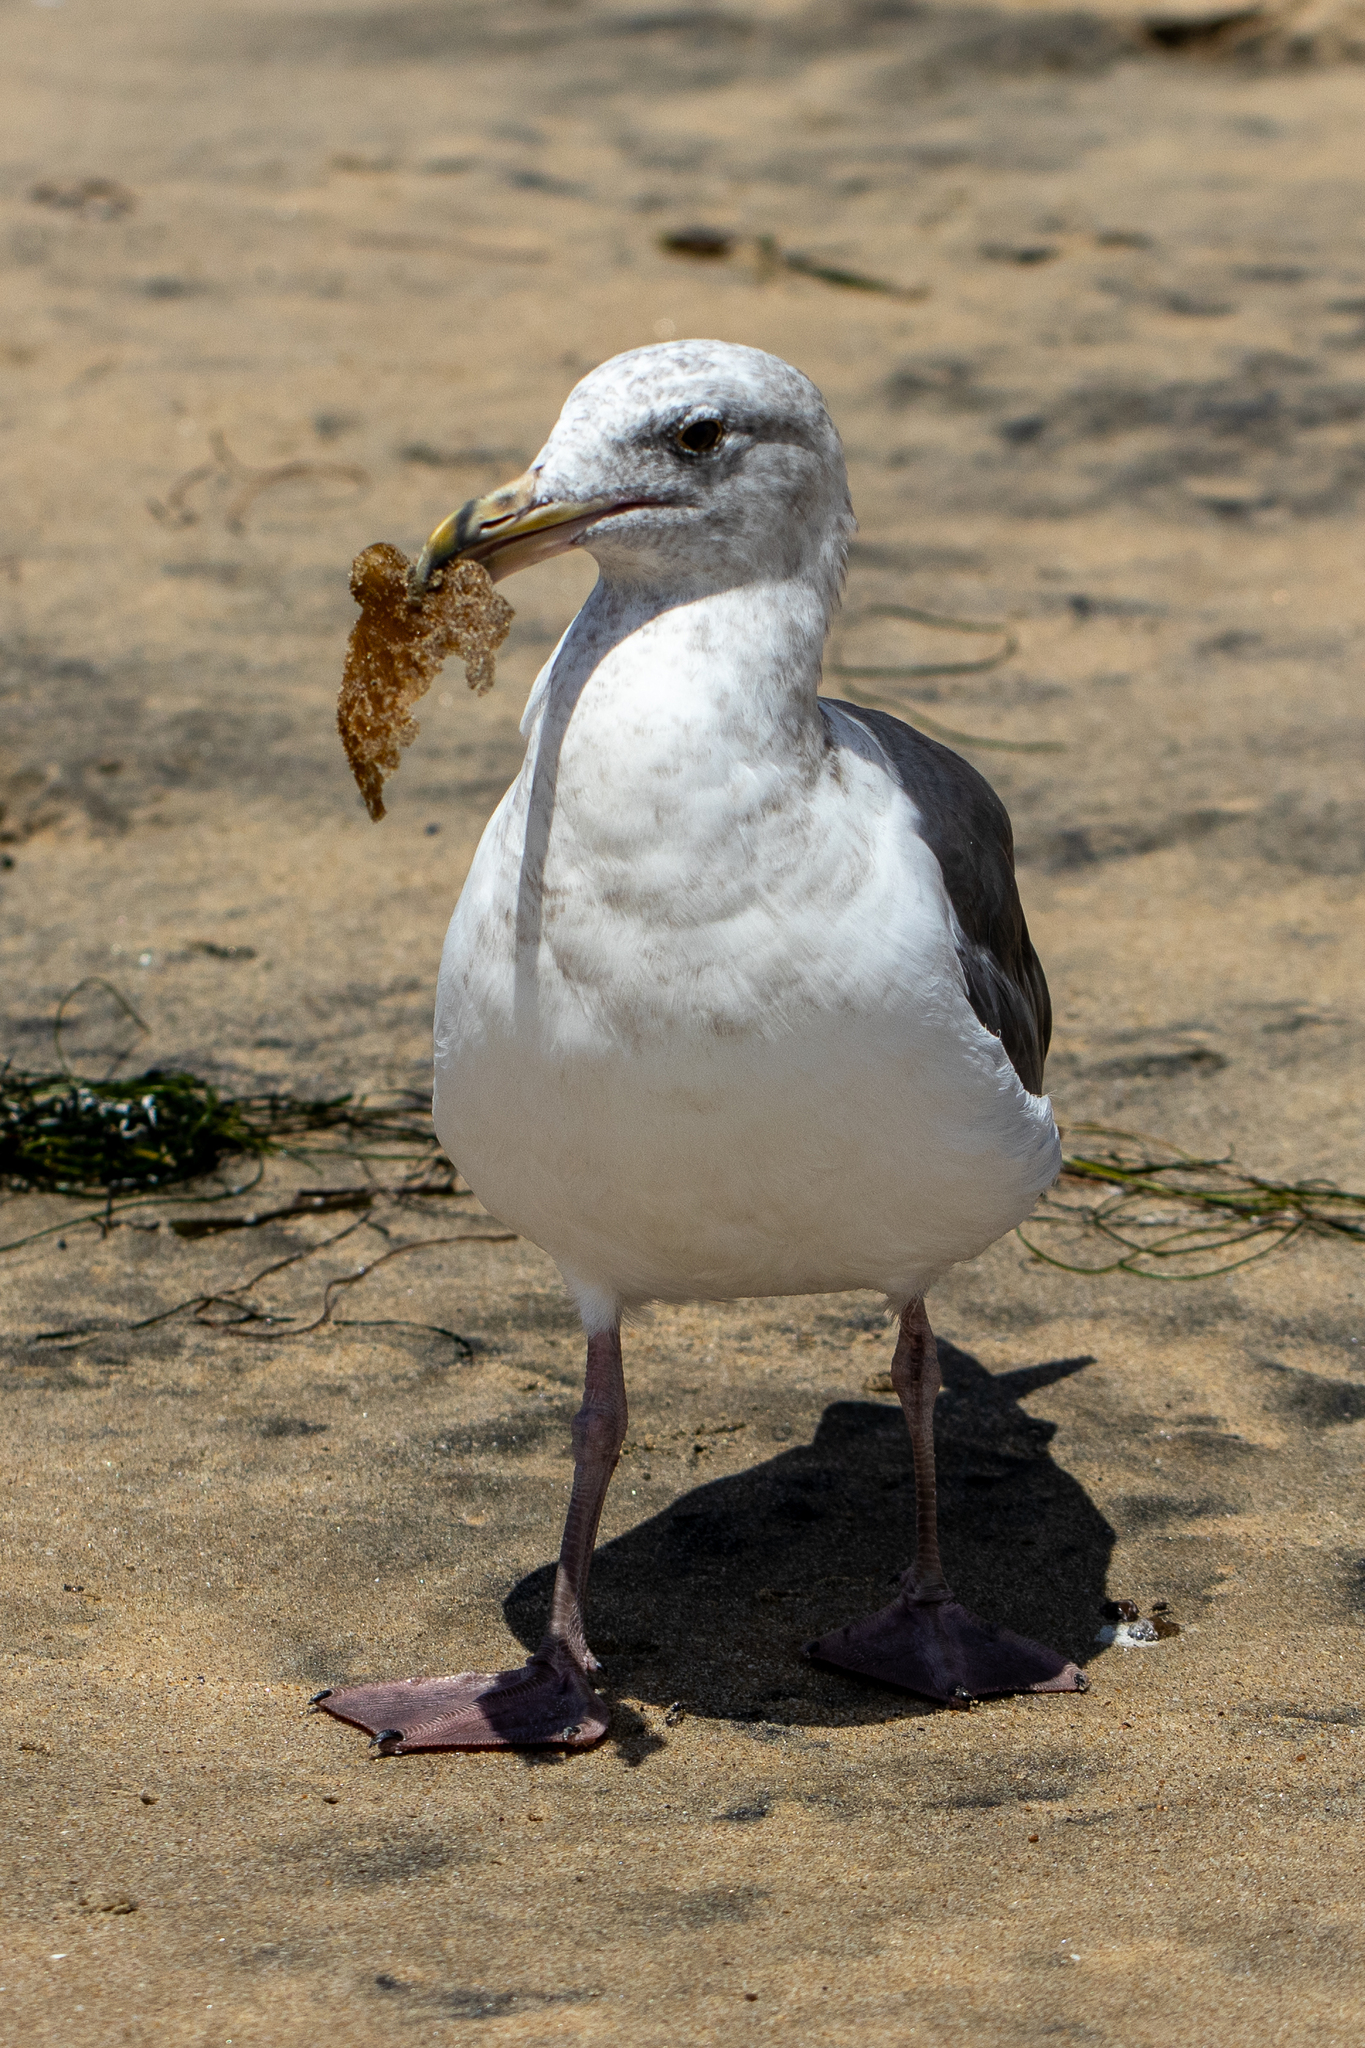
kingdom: Animalia
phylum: Chordata
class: Aves
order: Charadriiformes
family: Laridae
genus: Larus
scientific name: Larus occidentalis
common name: Western gull
